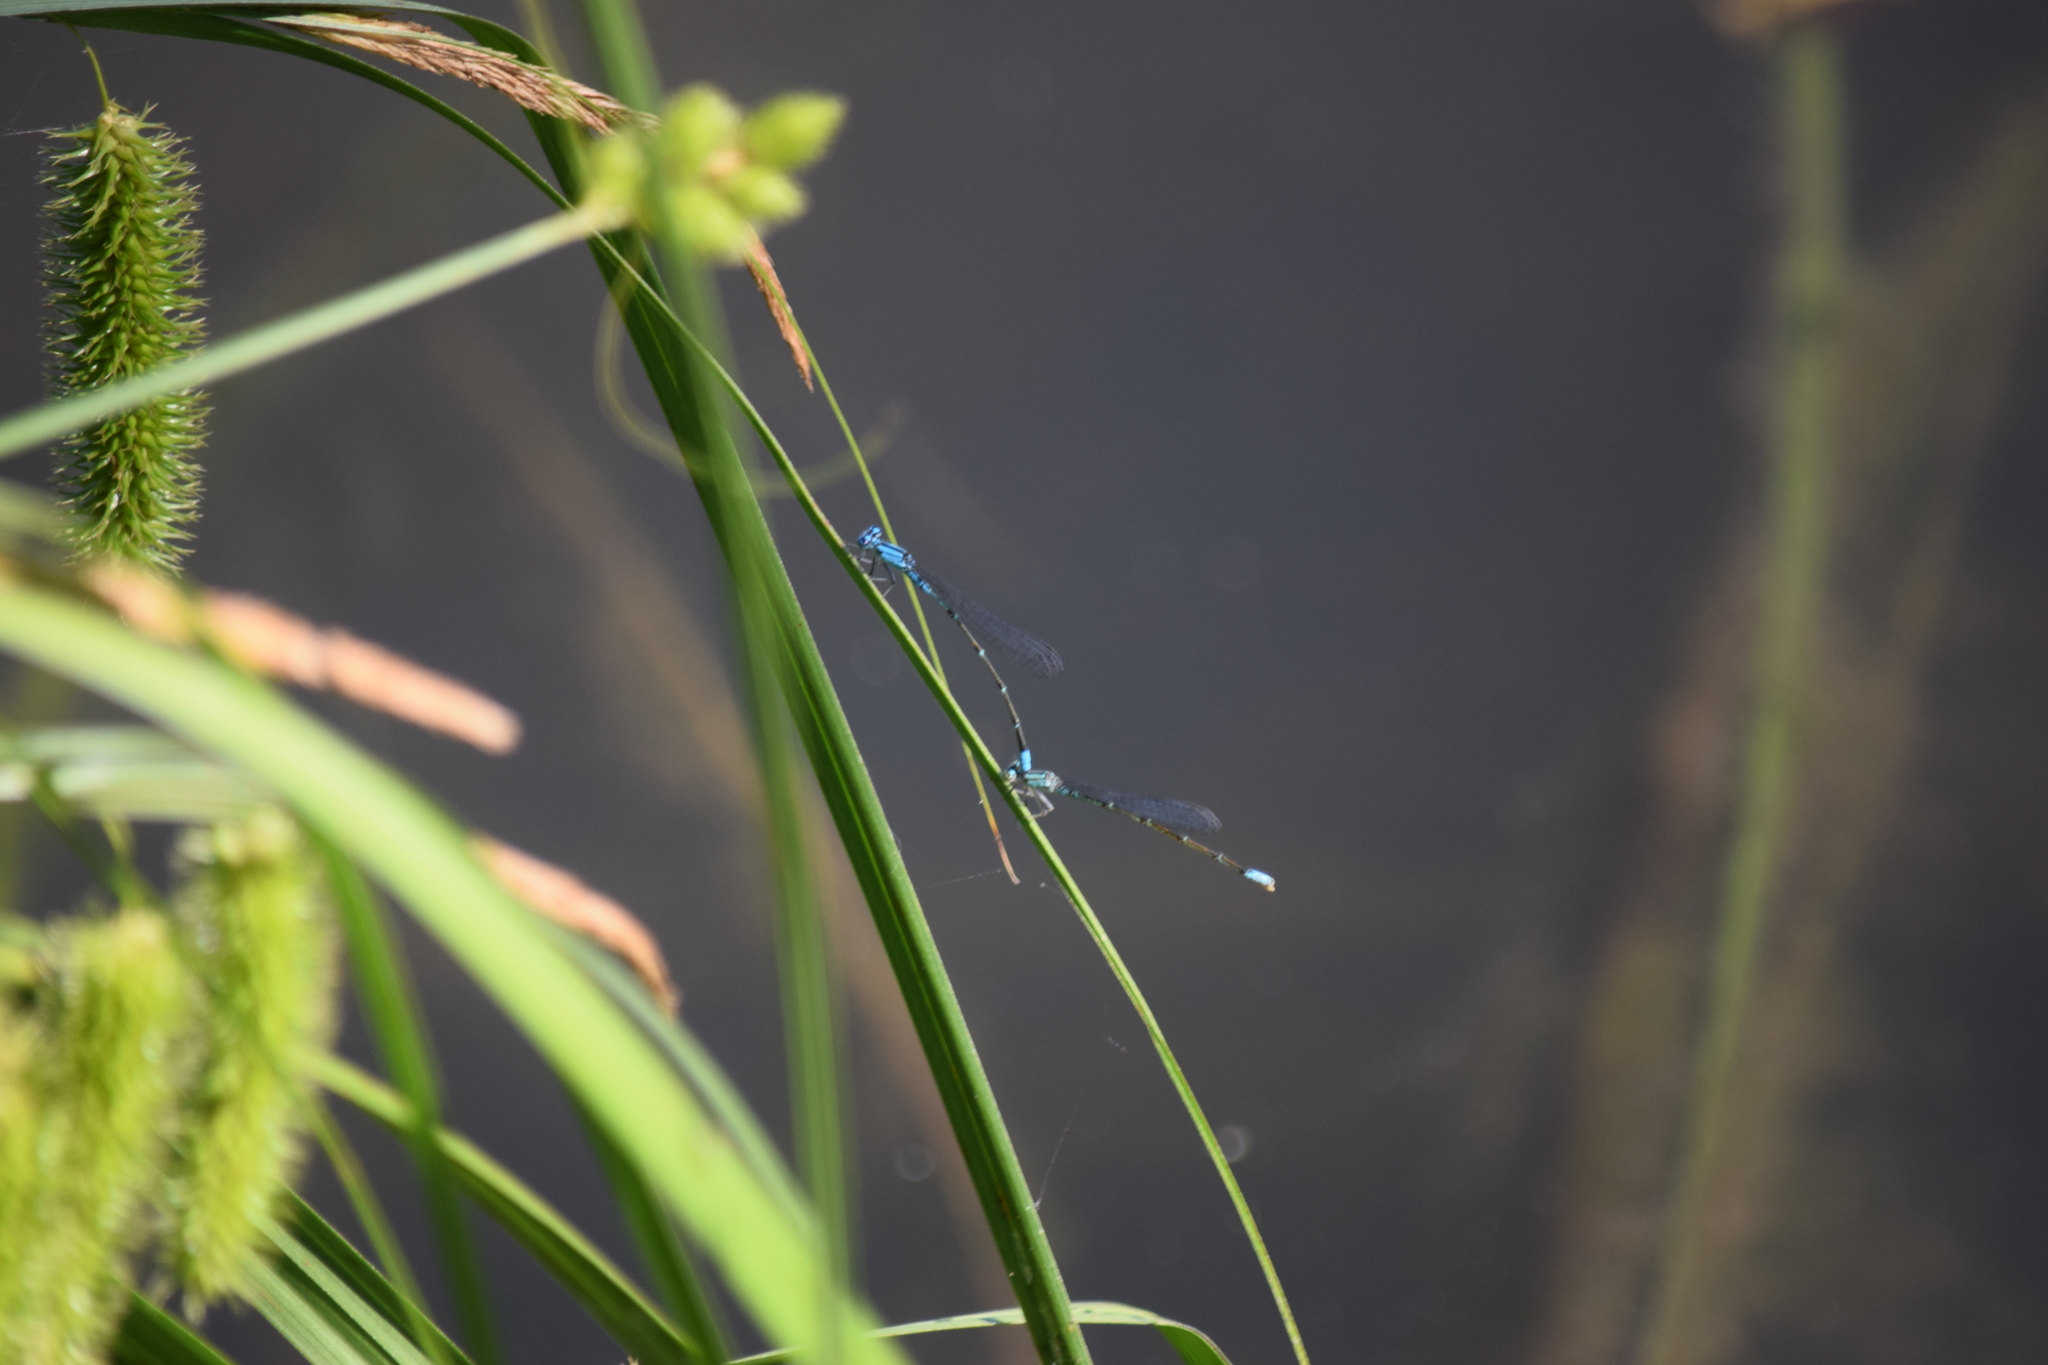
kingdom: Animalia
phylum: Arthropoda
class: Insecta
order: Odonata
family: Coenagrionidae
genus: Enallagma
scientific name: Enallagma traviatum
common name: Slender bluet
